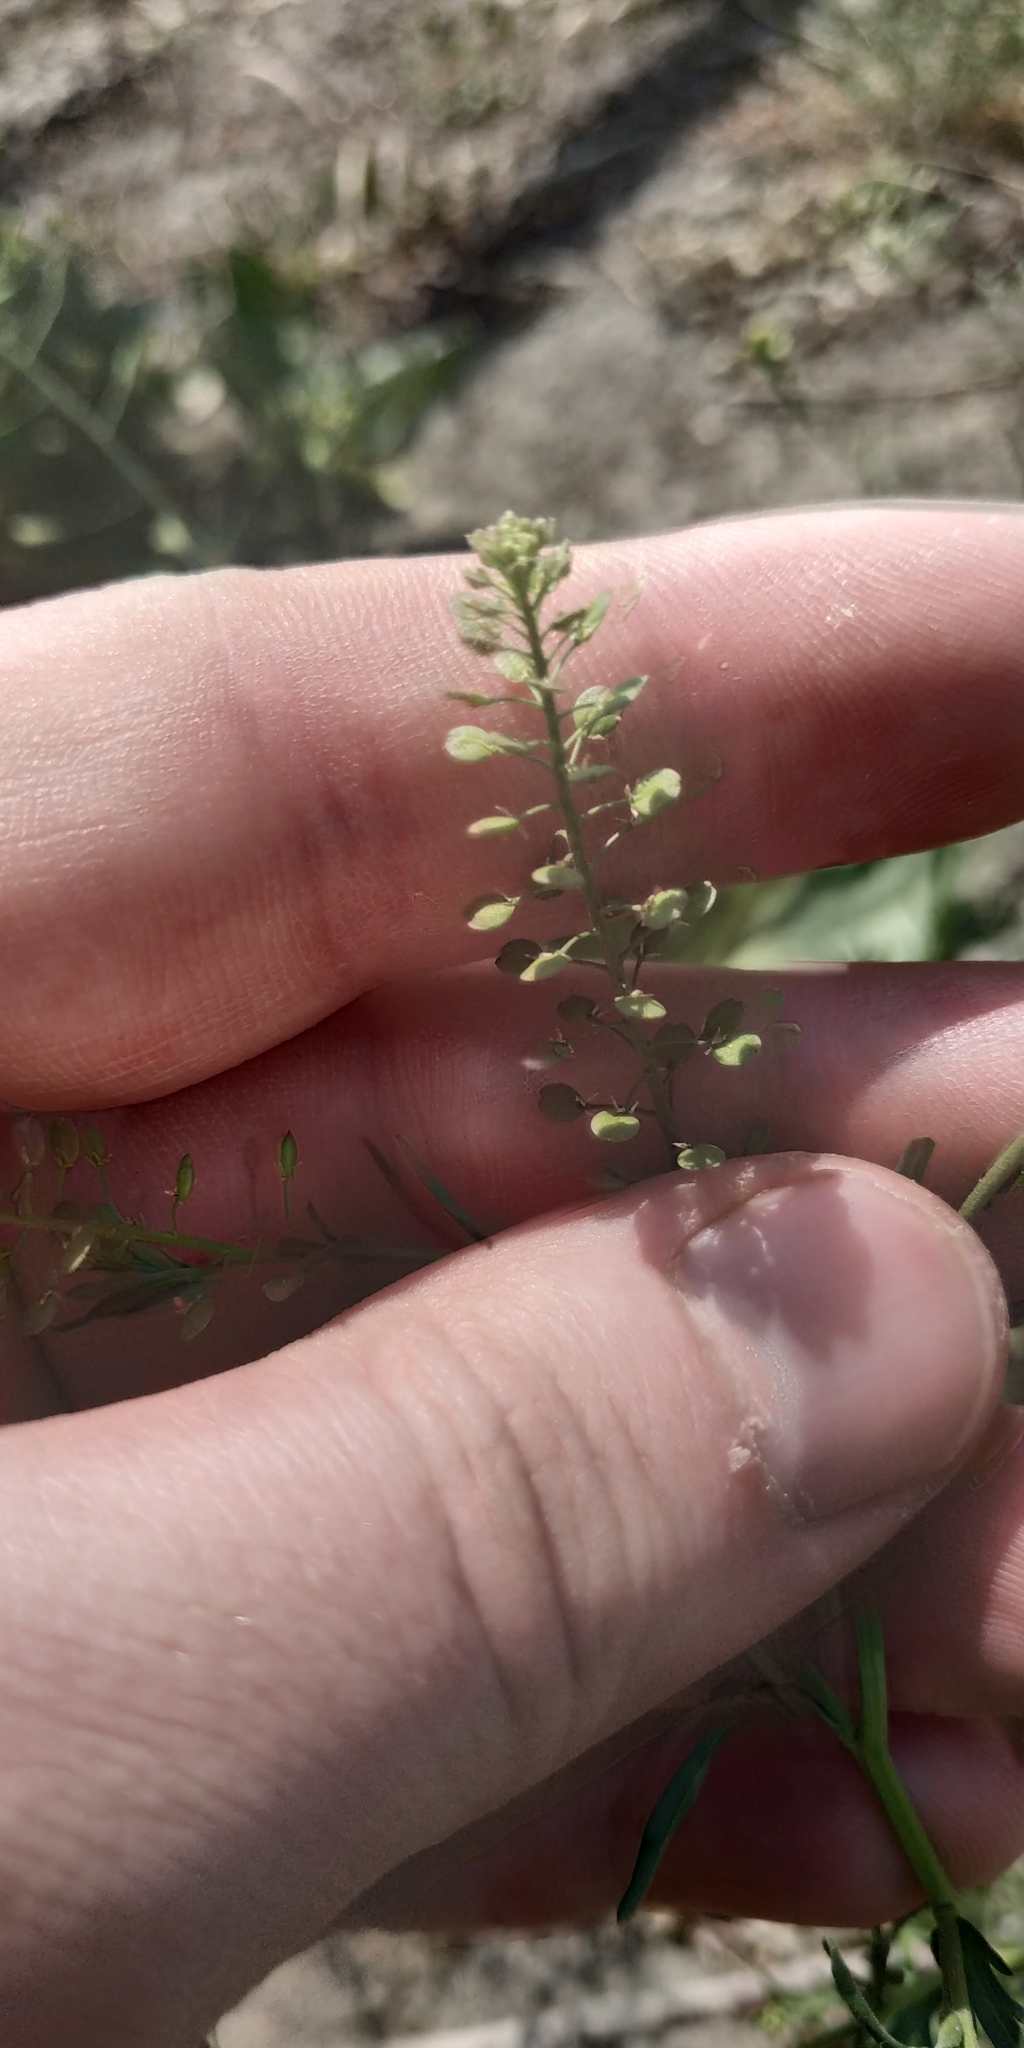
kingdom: Plantae
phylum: Tracheophyta
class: Magnoliopsida
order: Brassicales
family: Brassicaceae
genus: Lepidium
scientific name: Lepidium ruderale
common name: Narrow-leaved pepperwort
